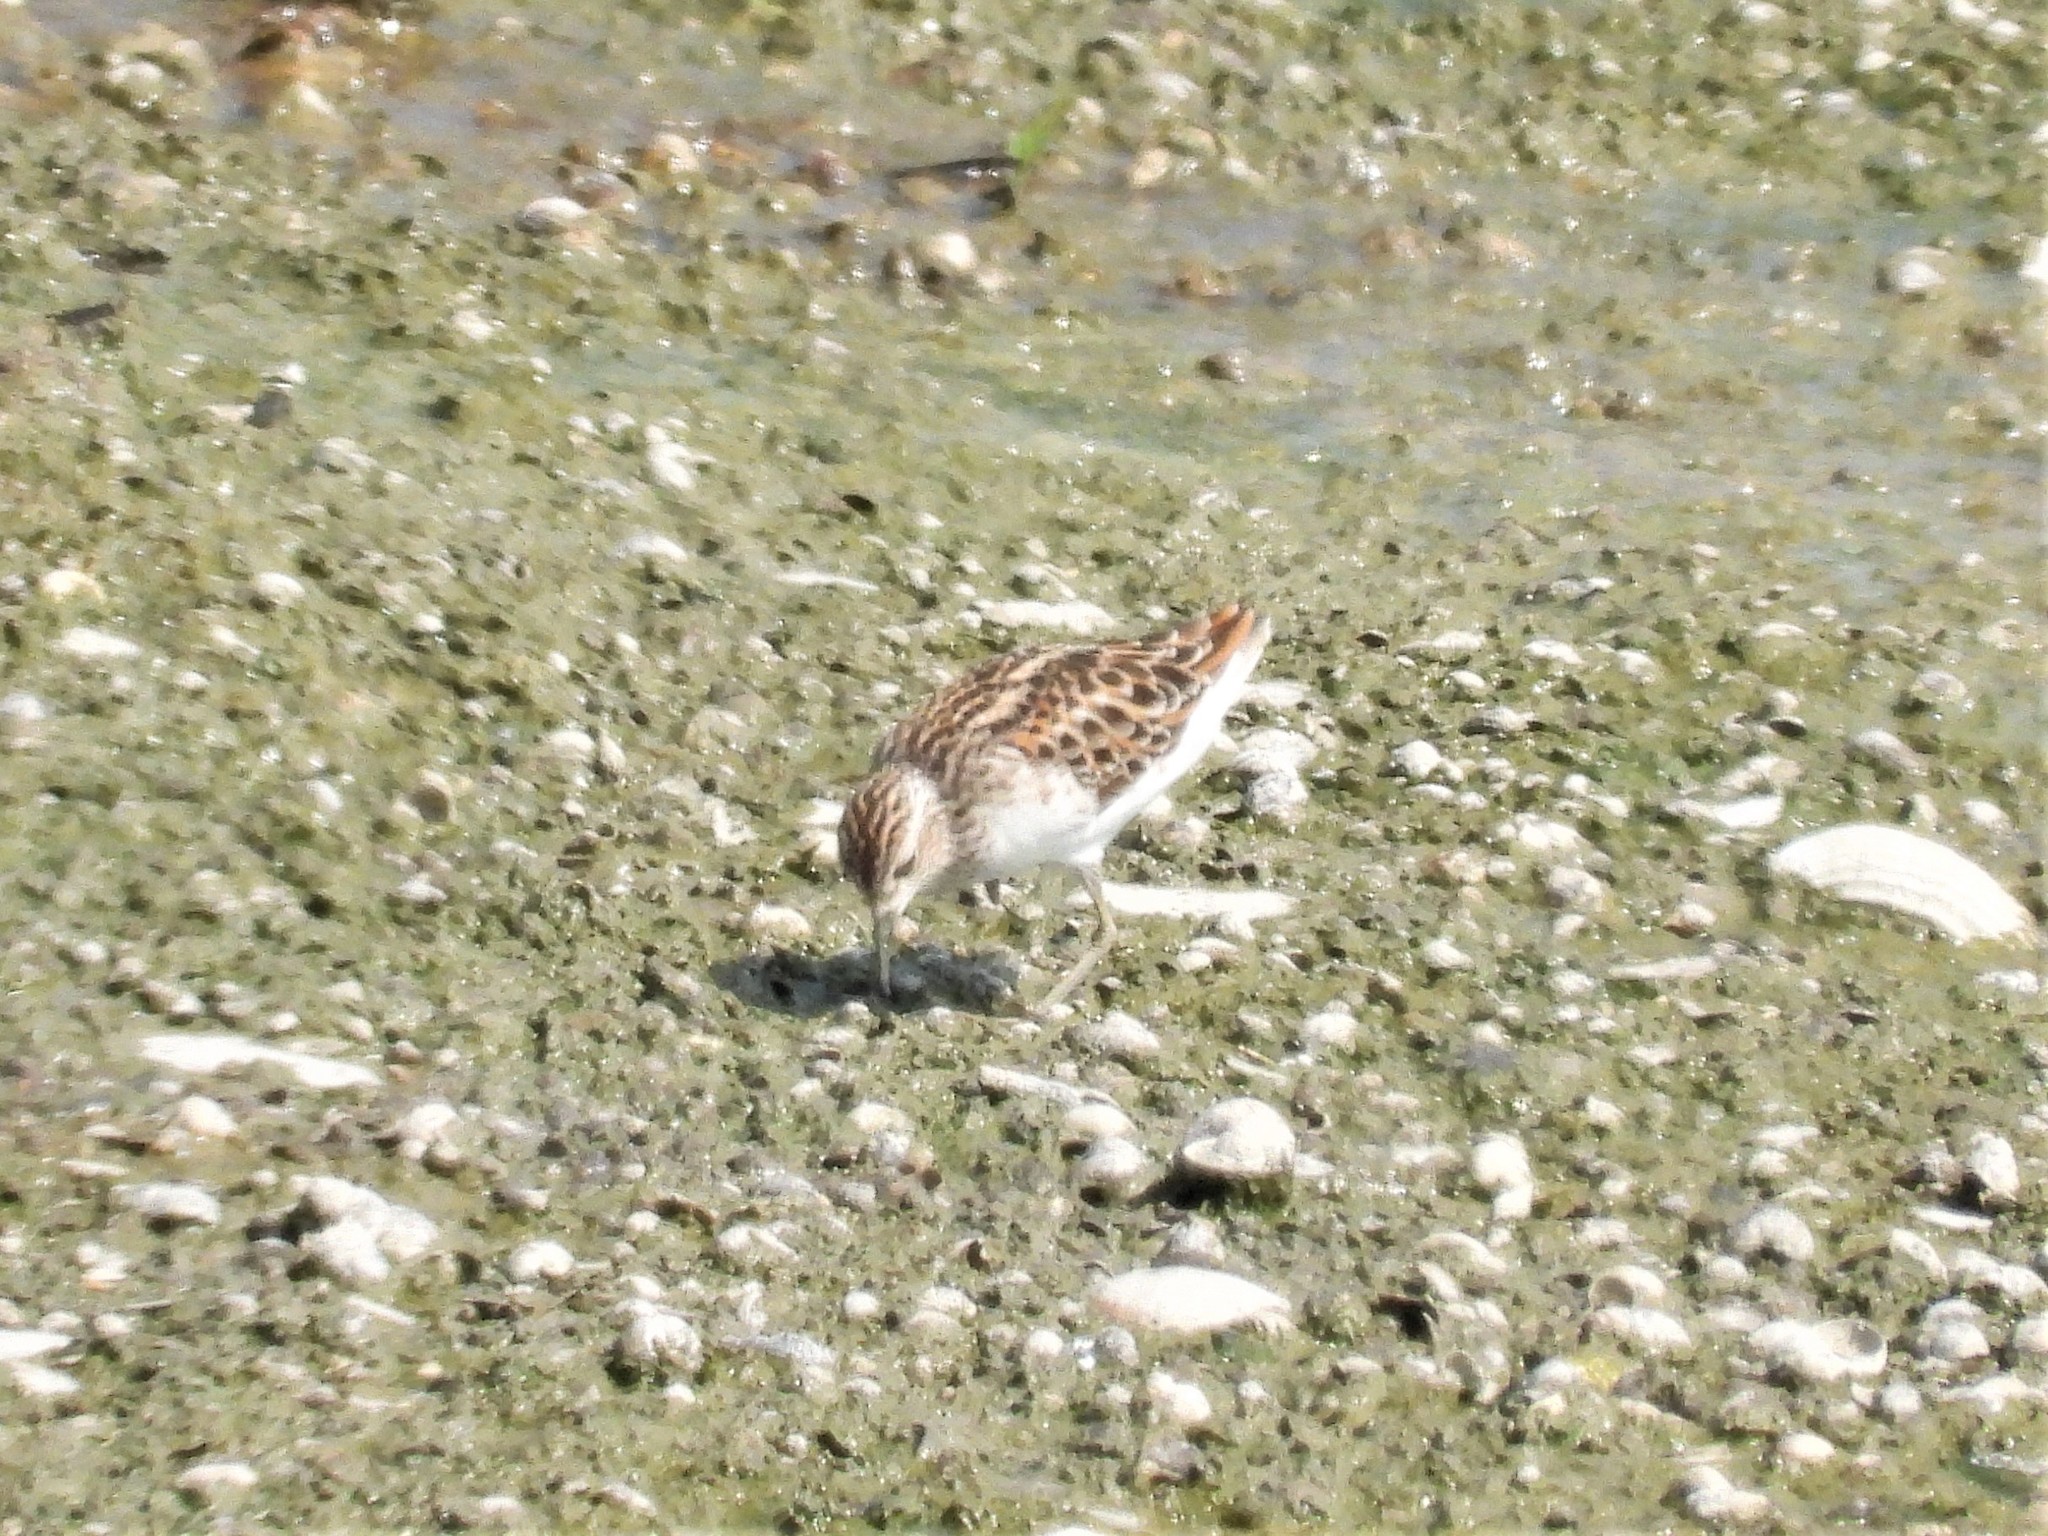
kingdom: Animalia
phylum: Chordata
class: Aves
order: Charadriiformes
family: Scolopacidae
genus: Calidris
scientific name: Calidris subminuta
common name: Long-toed stint
